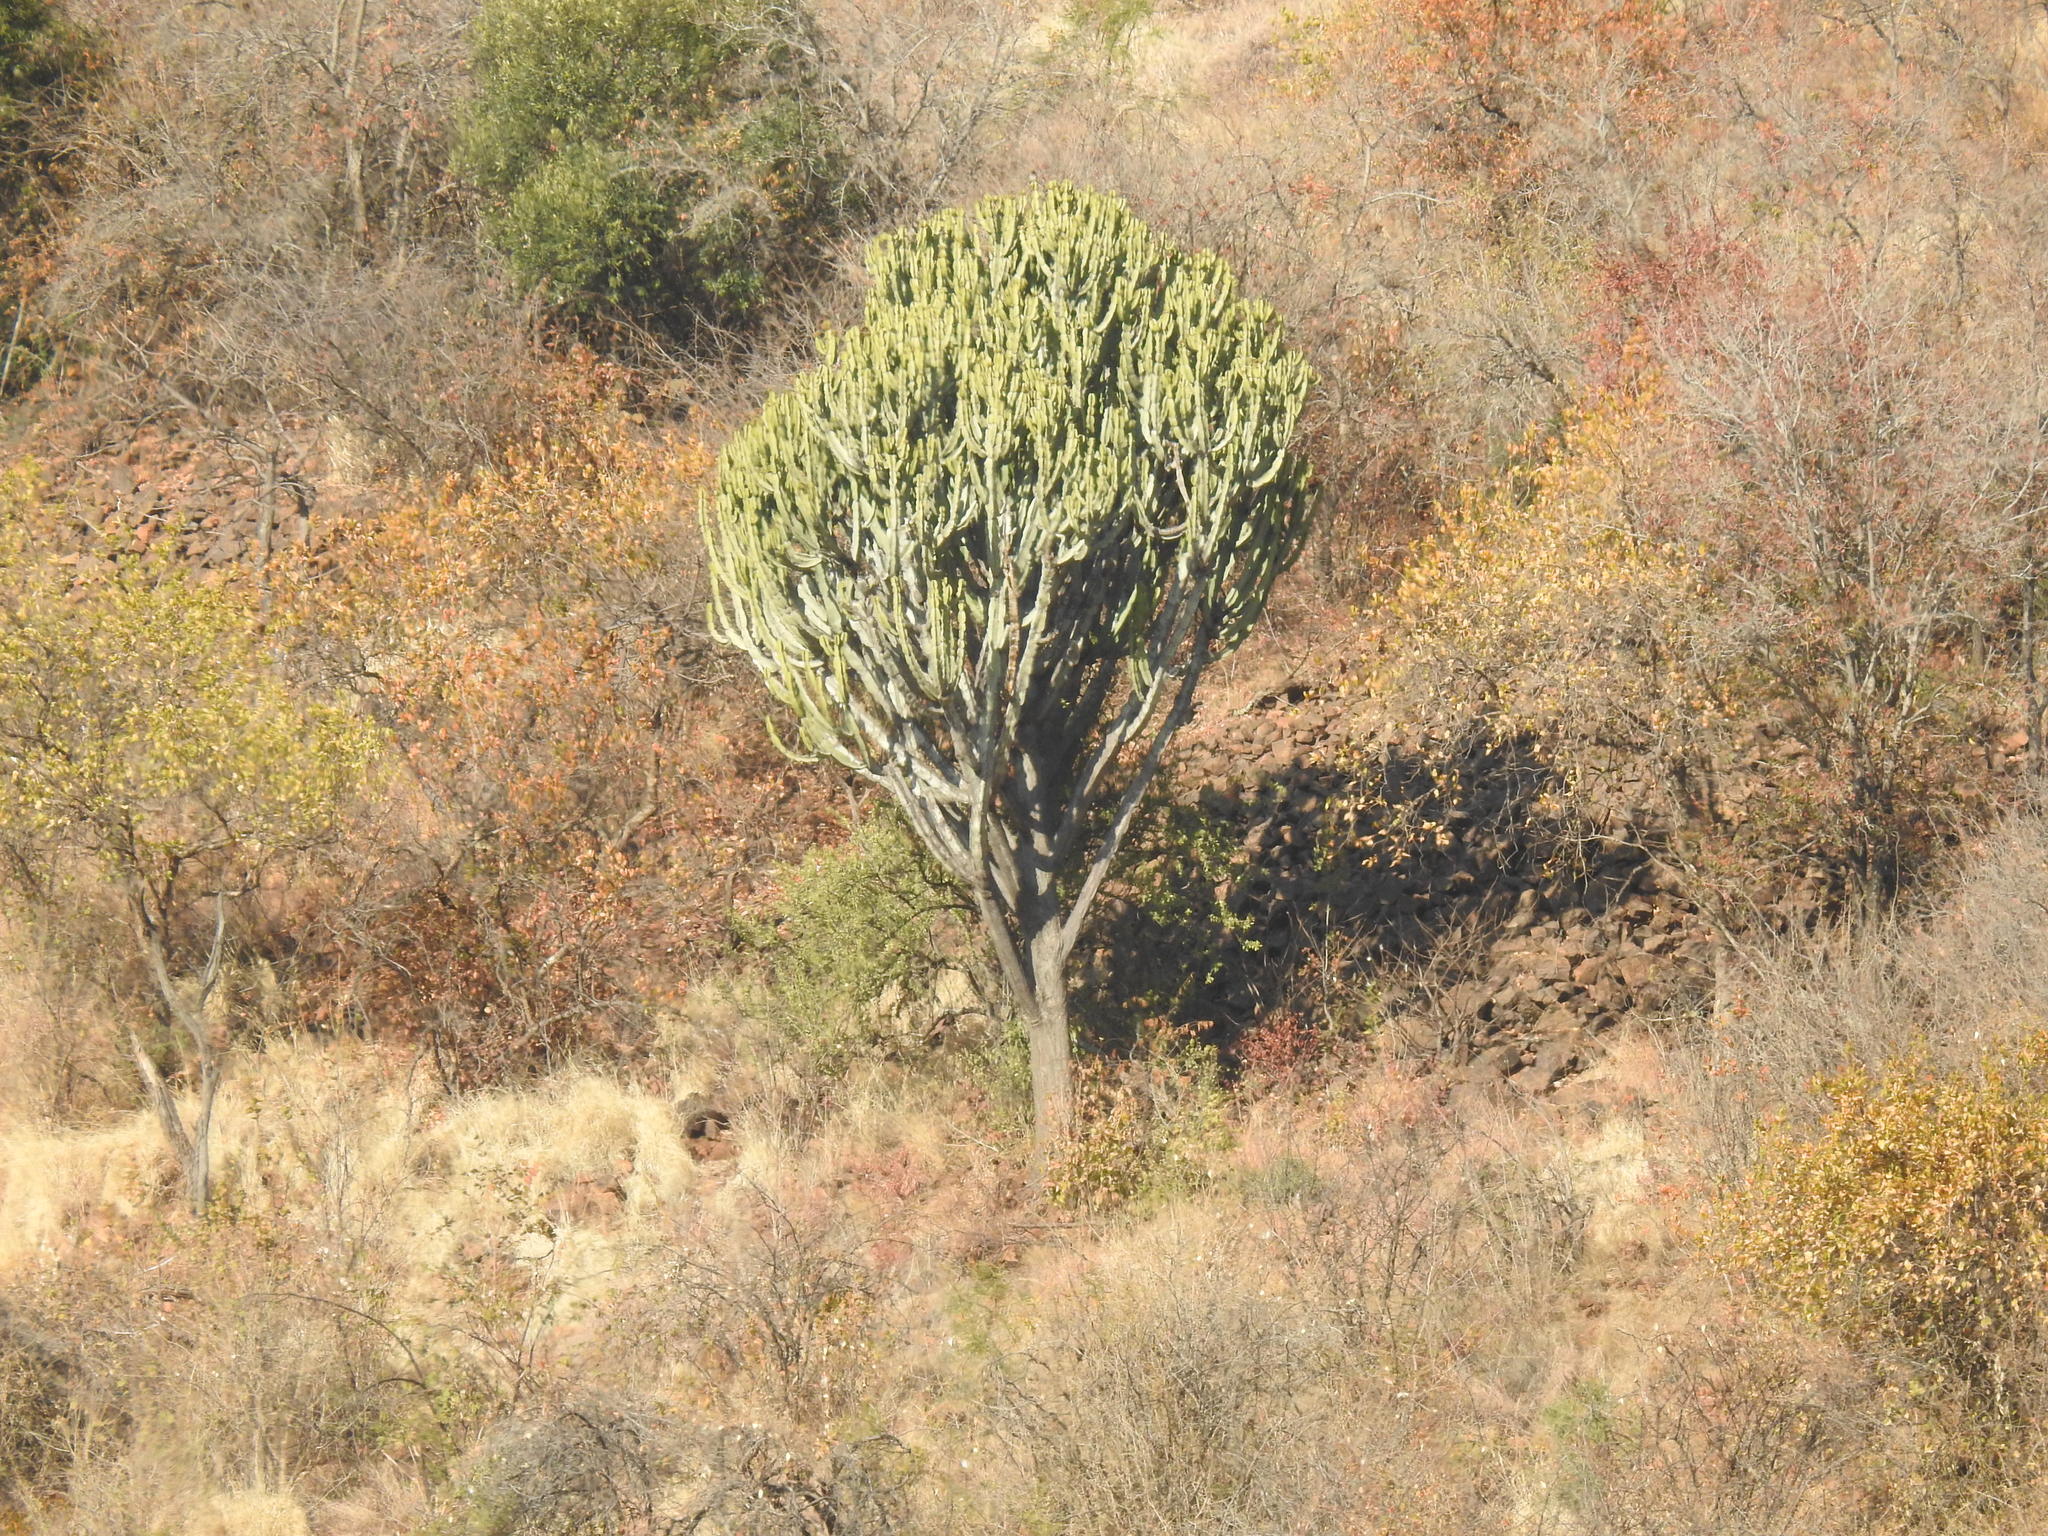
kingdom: Plantae
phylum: Tracheophyta
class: Magnoliopsida
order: Malpighiales
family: Euphorbiaceae
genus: Euphorbia
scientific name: Euphorbia ingens
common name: Cactus spurge
